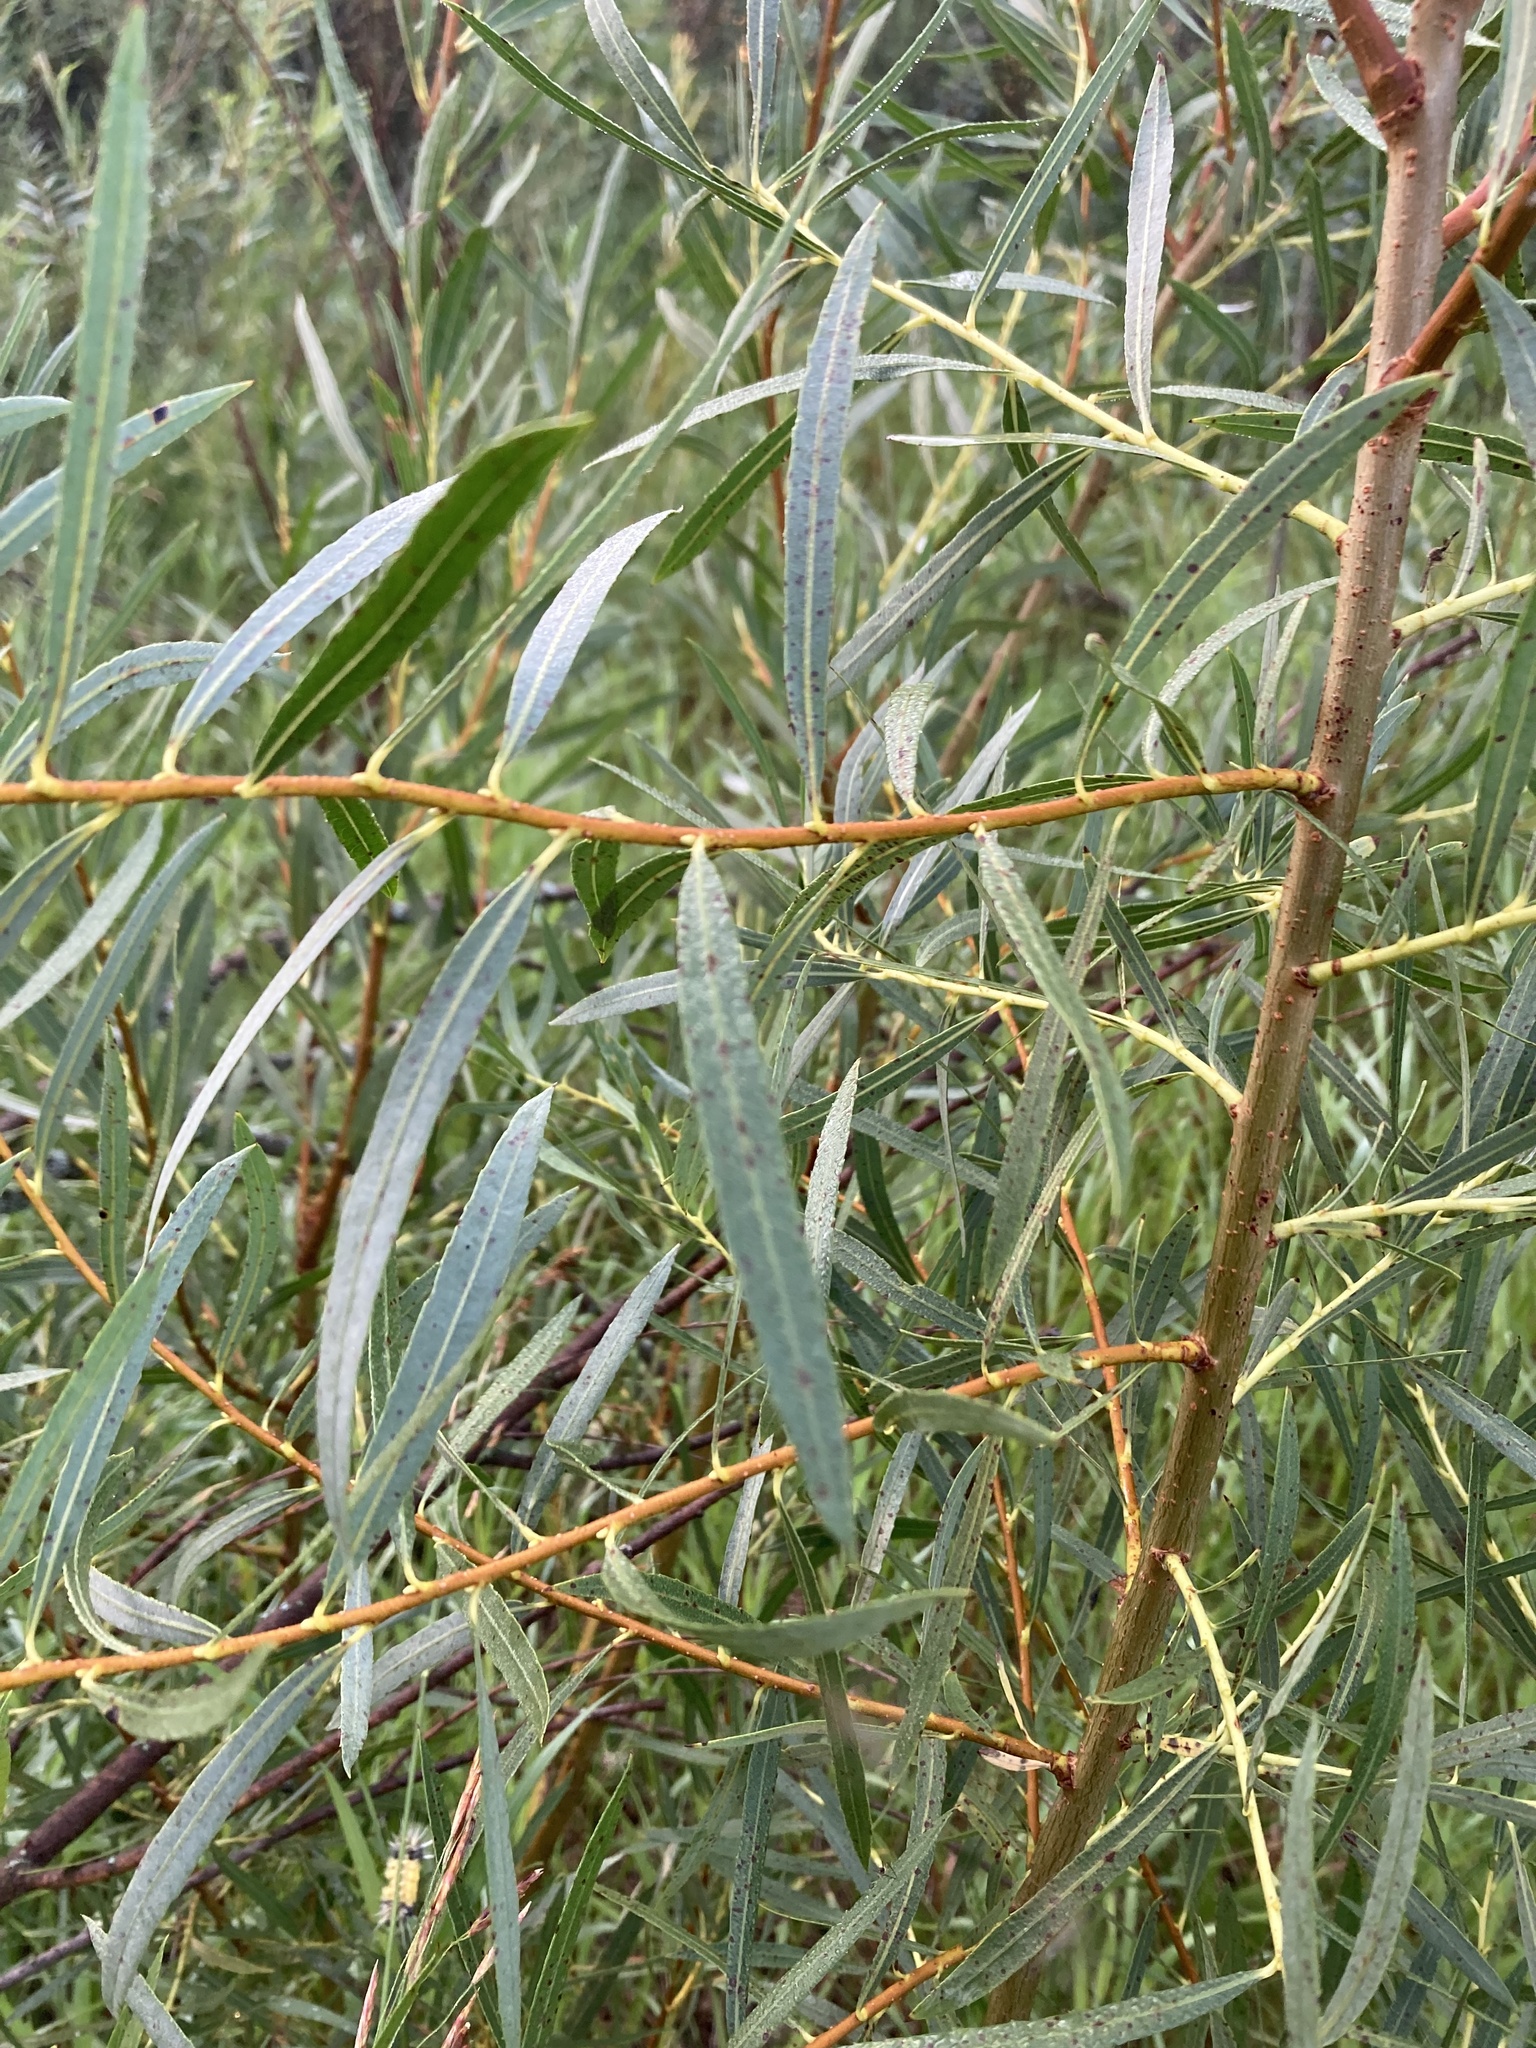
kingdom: Plantae
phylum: Tracheophyta
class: Magnoliopsida
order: Malpighiales
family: Salicaceae
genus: Salix
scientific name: Salix interior
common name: Sandbar willow
